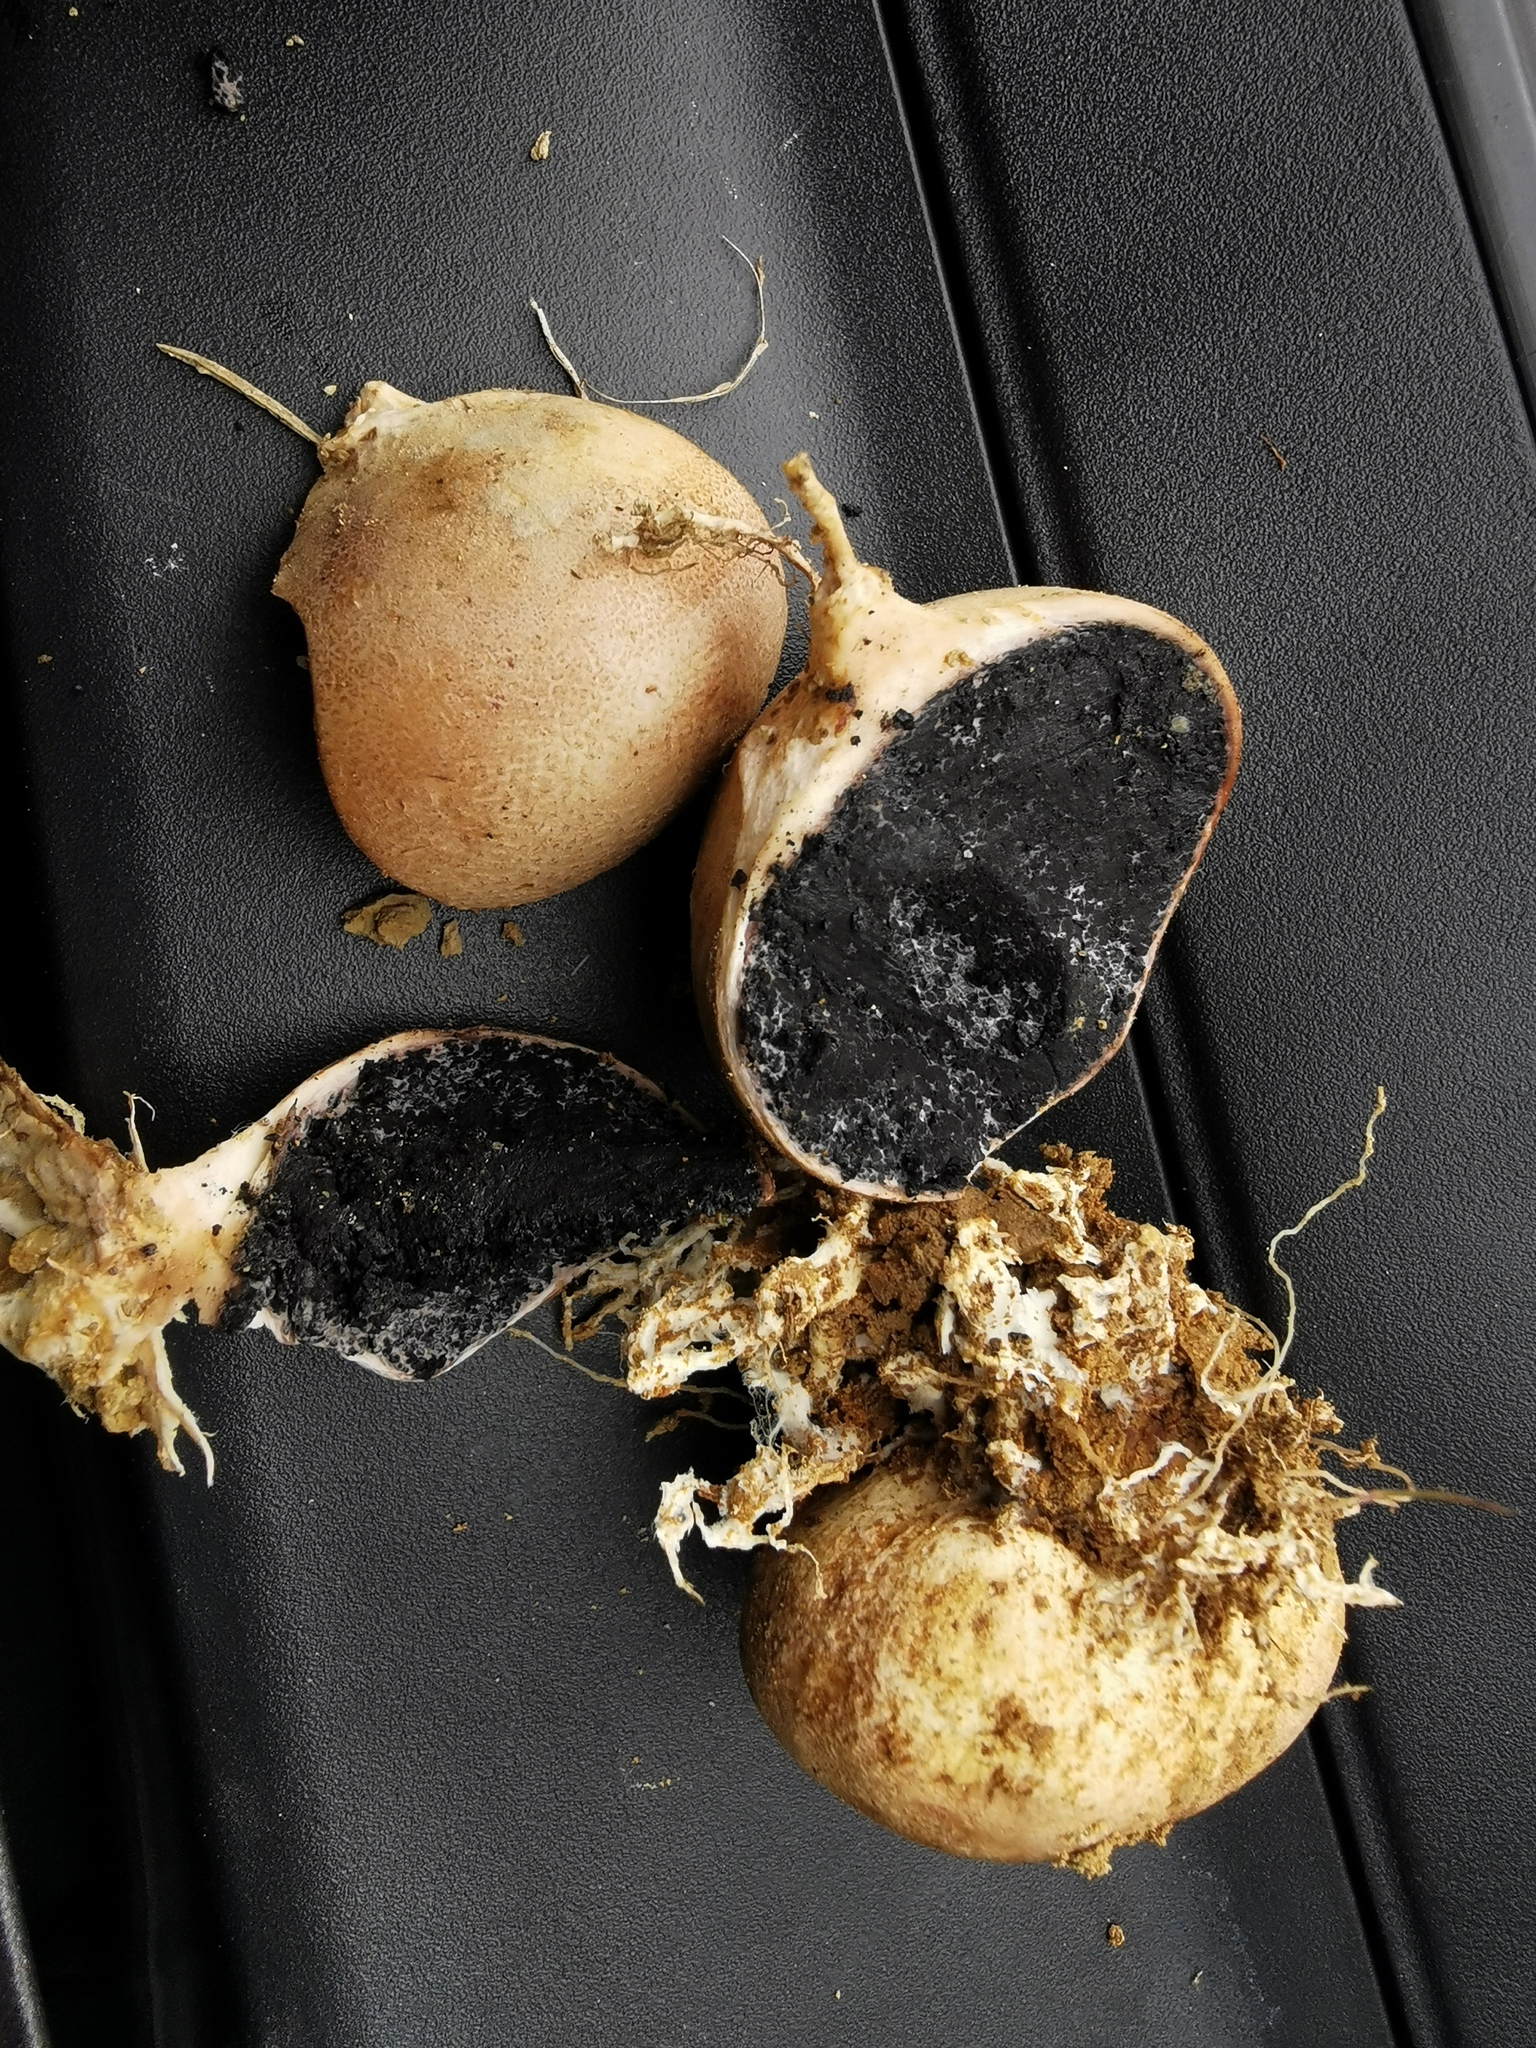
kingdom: Fungi
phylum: Basidiomycota
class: Agaricomycetes
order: Boletales
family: Sclerodermataceae
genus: Scleroderma
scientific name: Scleroderma bovista
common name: Potato earthball
